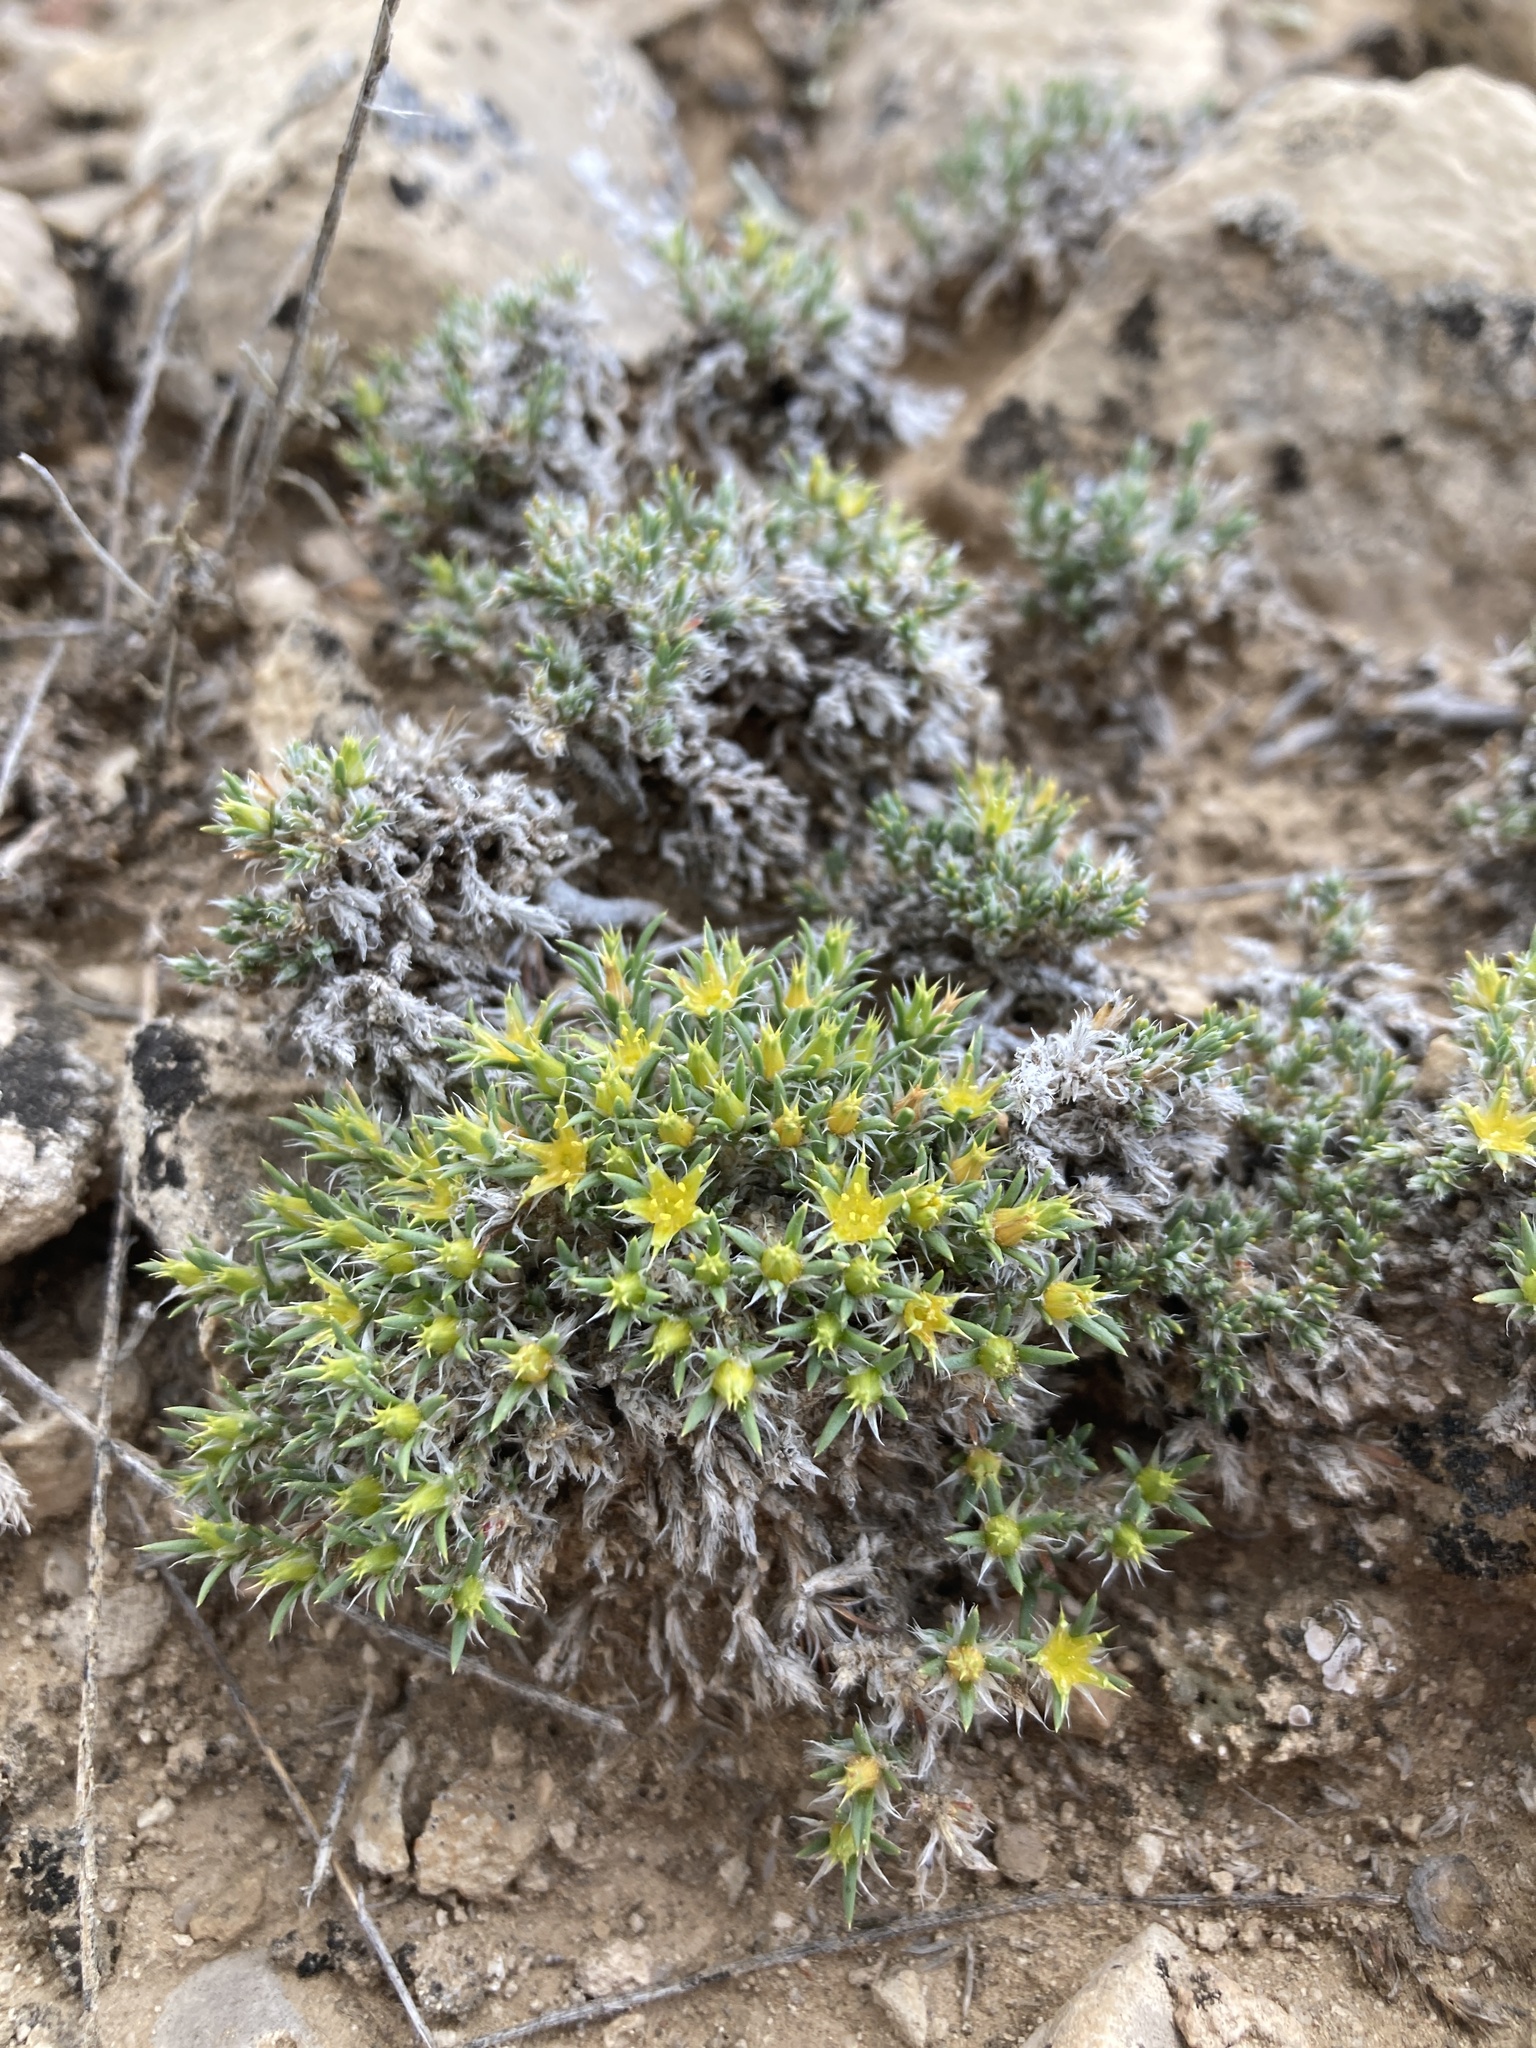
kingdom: Plantae
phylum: Tracheophyta
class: Magnoliopsida
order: Caryophyllales
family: Caryophyllaceae
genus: Paronychia
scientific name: Paronychia sessiliflora
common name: Creeping nailwort
